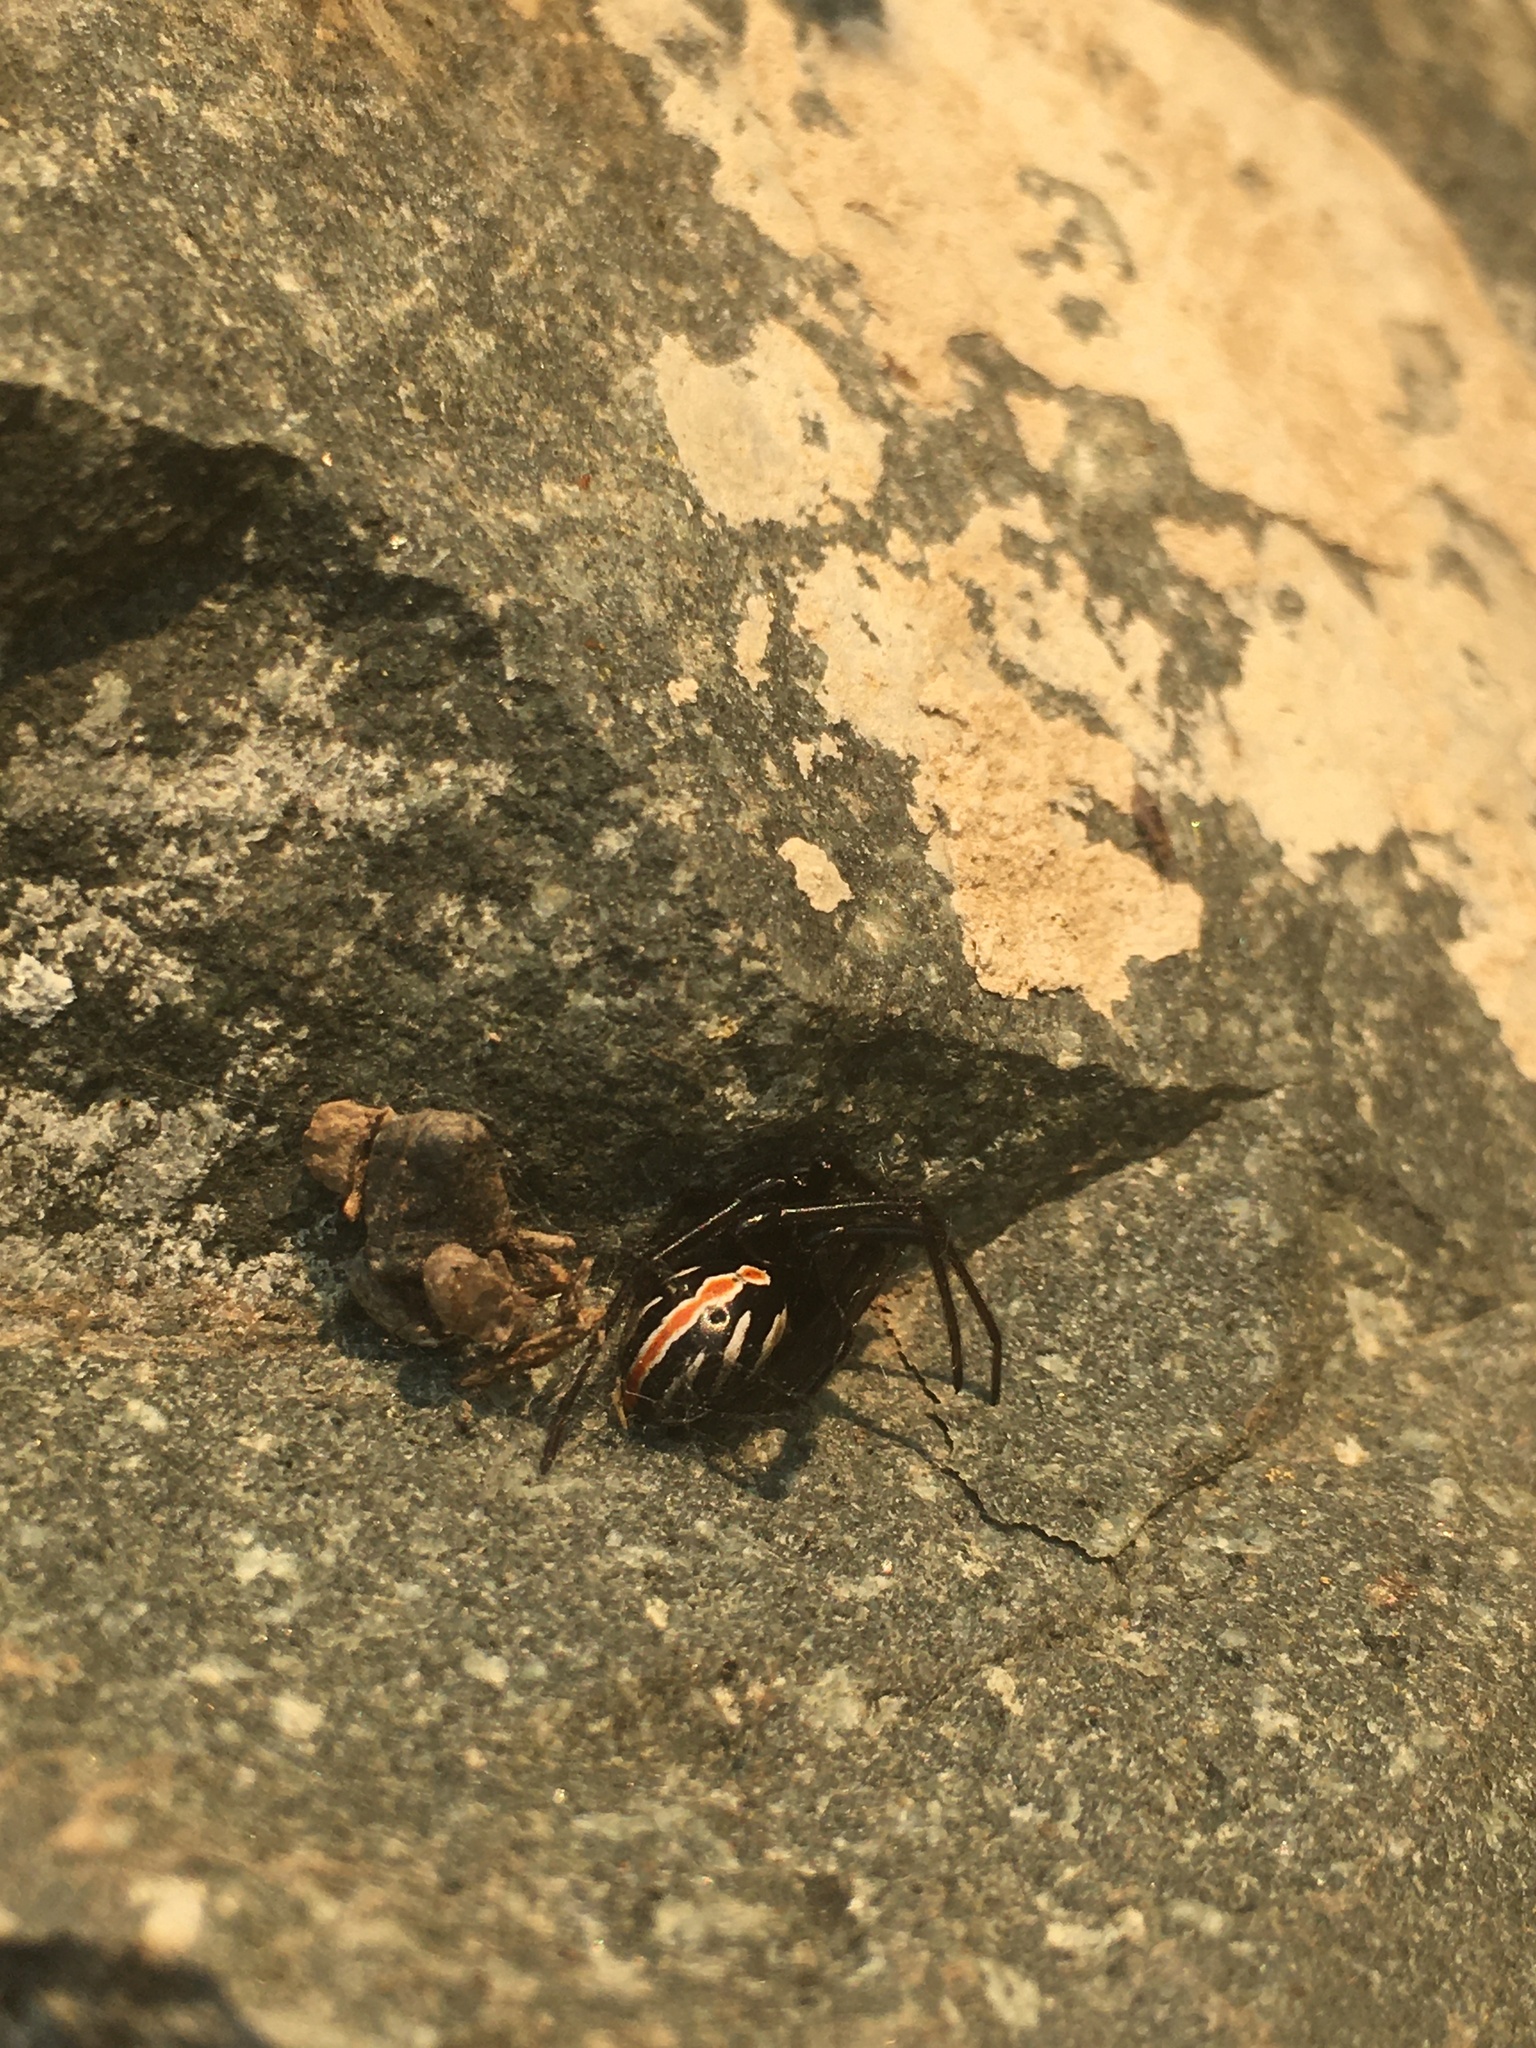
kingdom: Animalia
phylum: Arthropoda
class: Arachnida
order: Araneae
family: Theridiidae
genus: Latrodectus
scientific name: Latrodectus hesperus
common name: Western black widow
